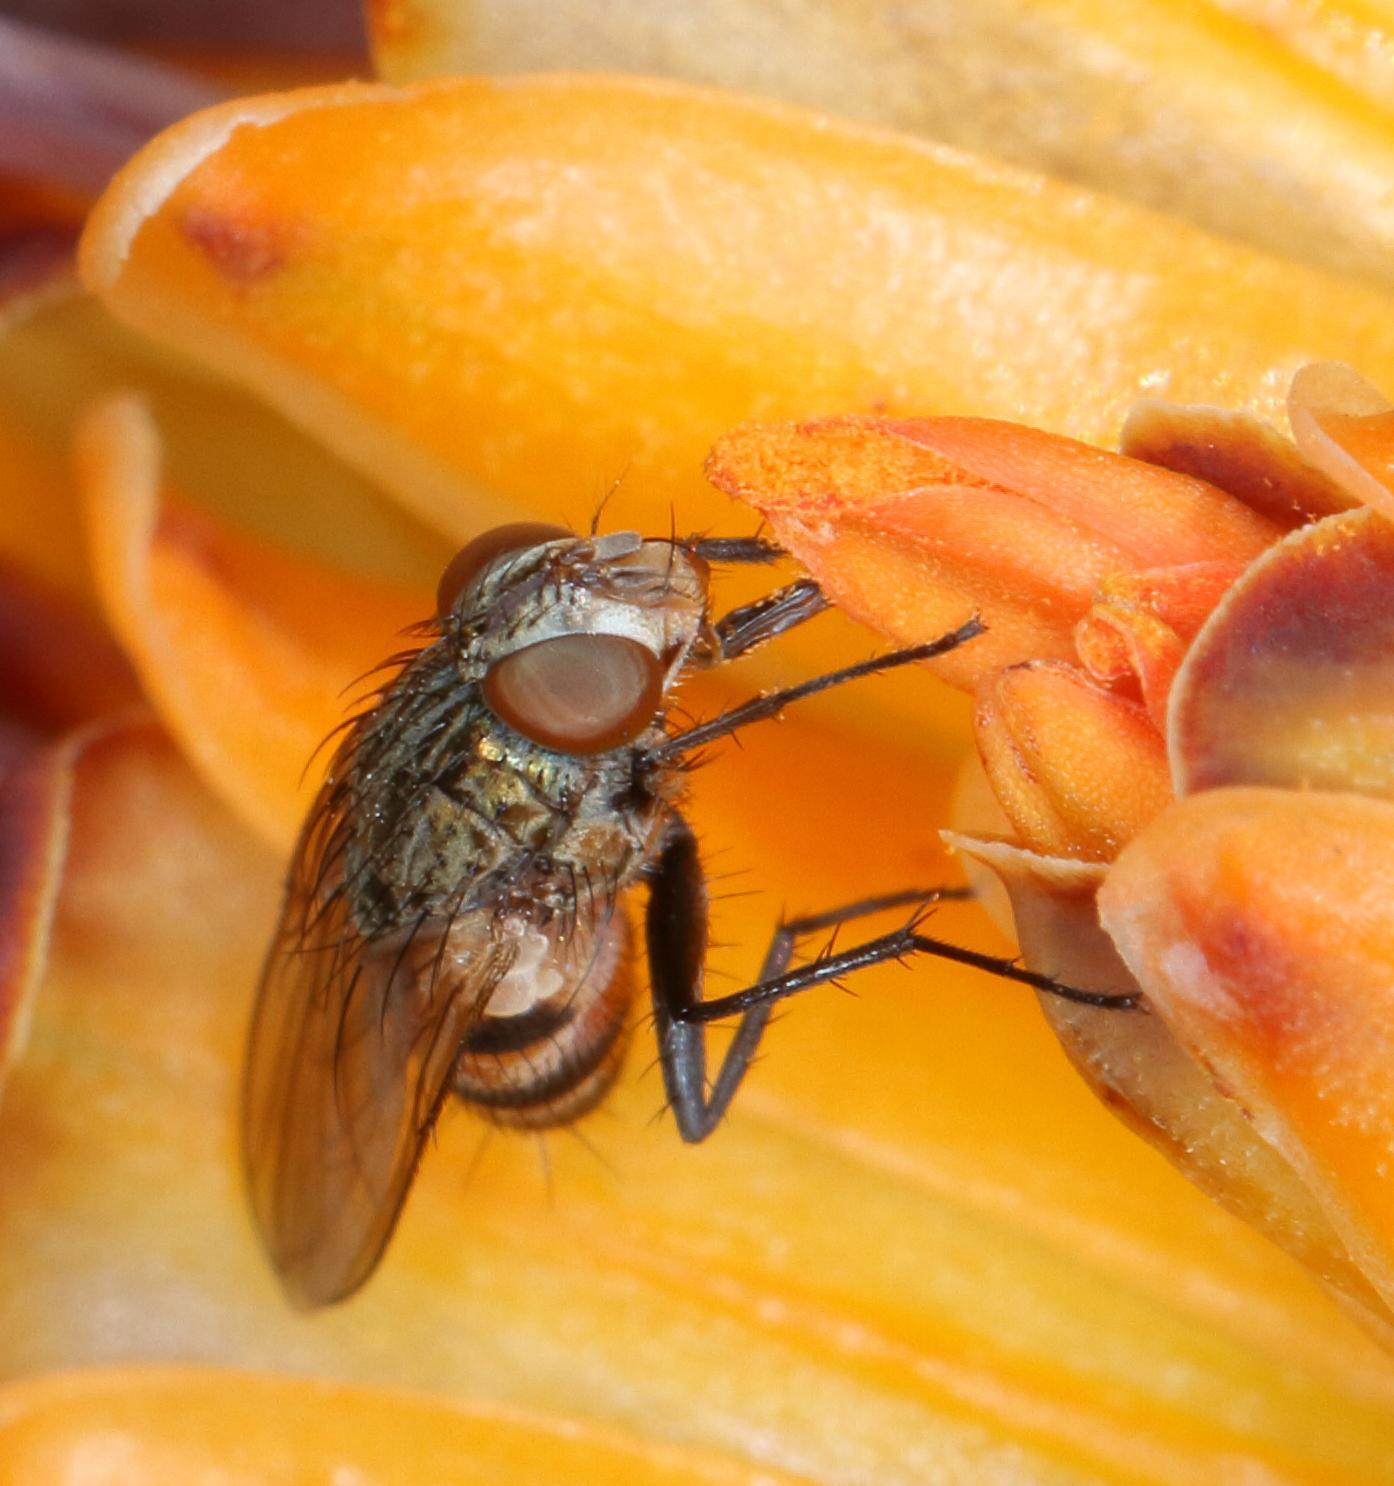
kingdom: Animalia
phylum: Arthropoda
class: Insecta
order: Diptera
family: Calliphoridae
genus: Rhyncomya
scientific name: Rhyncomya pruinosa
